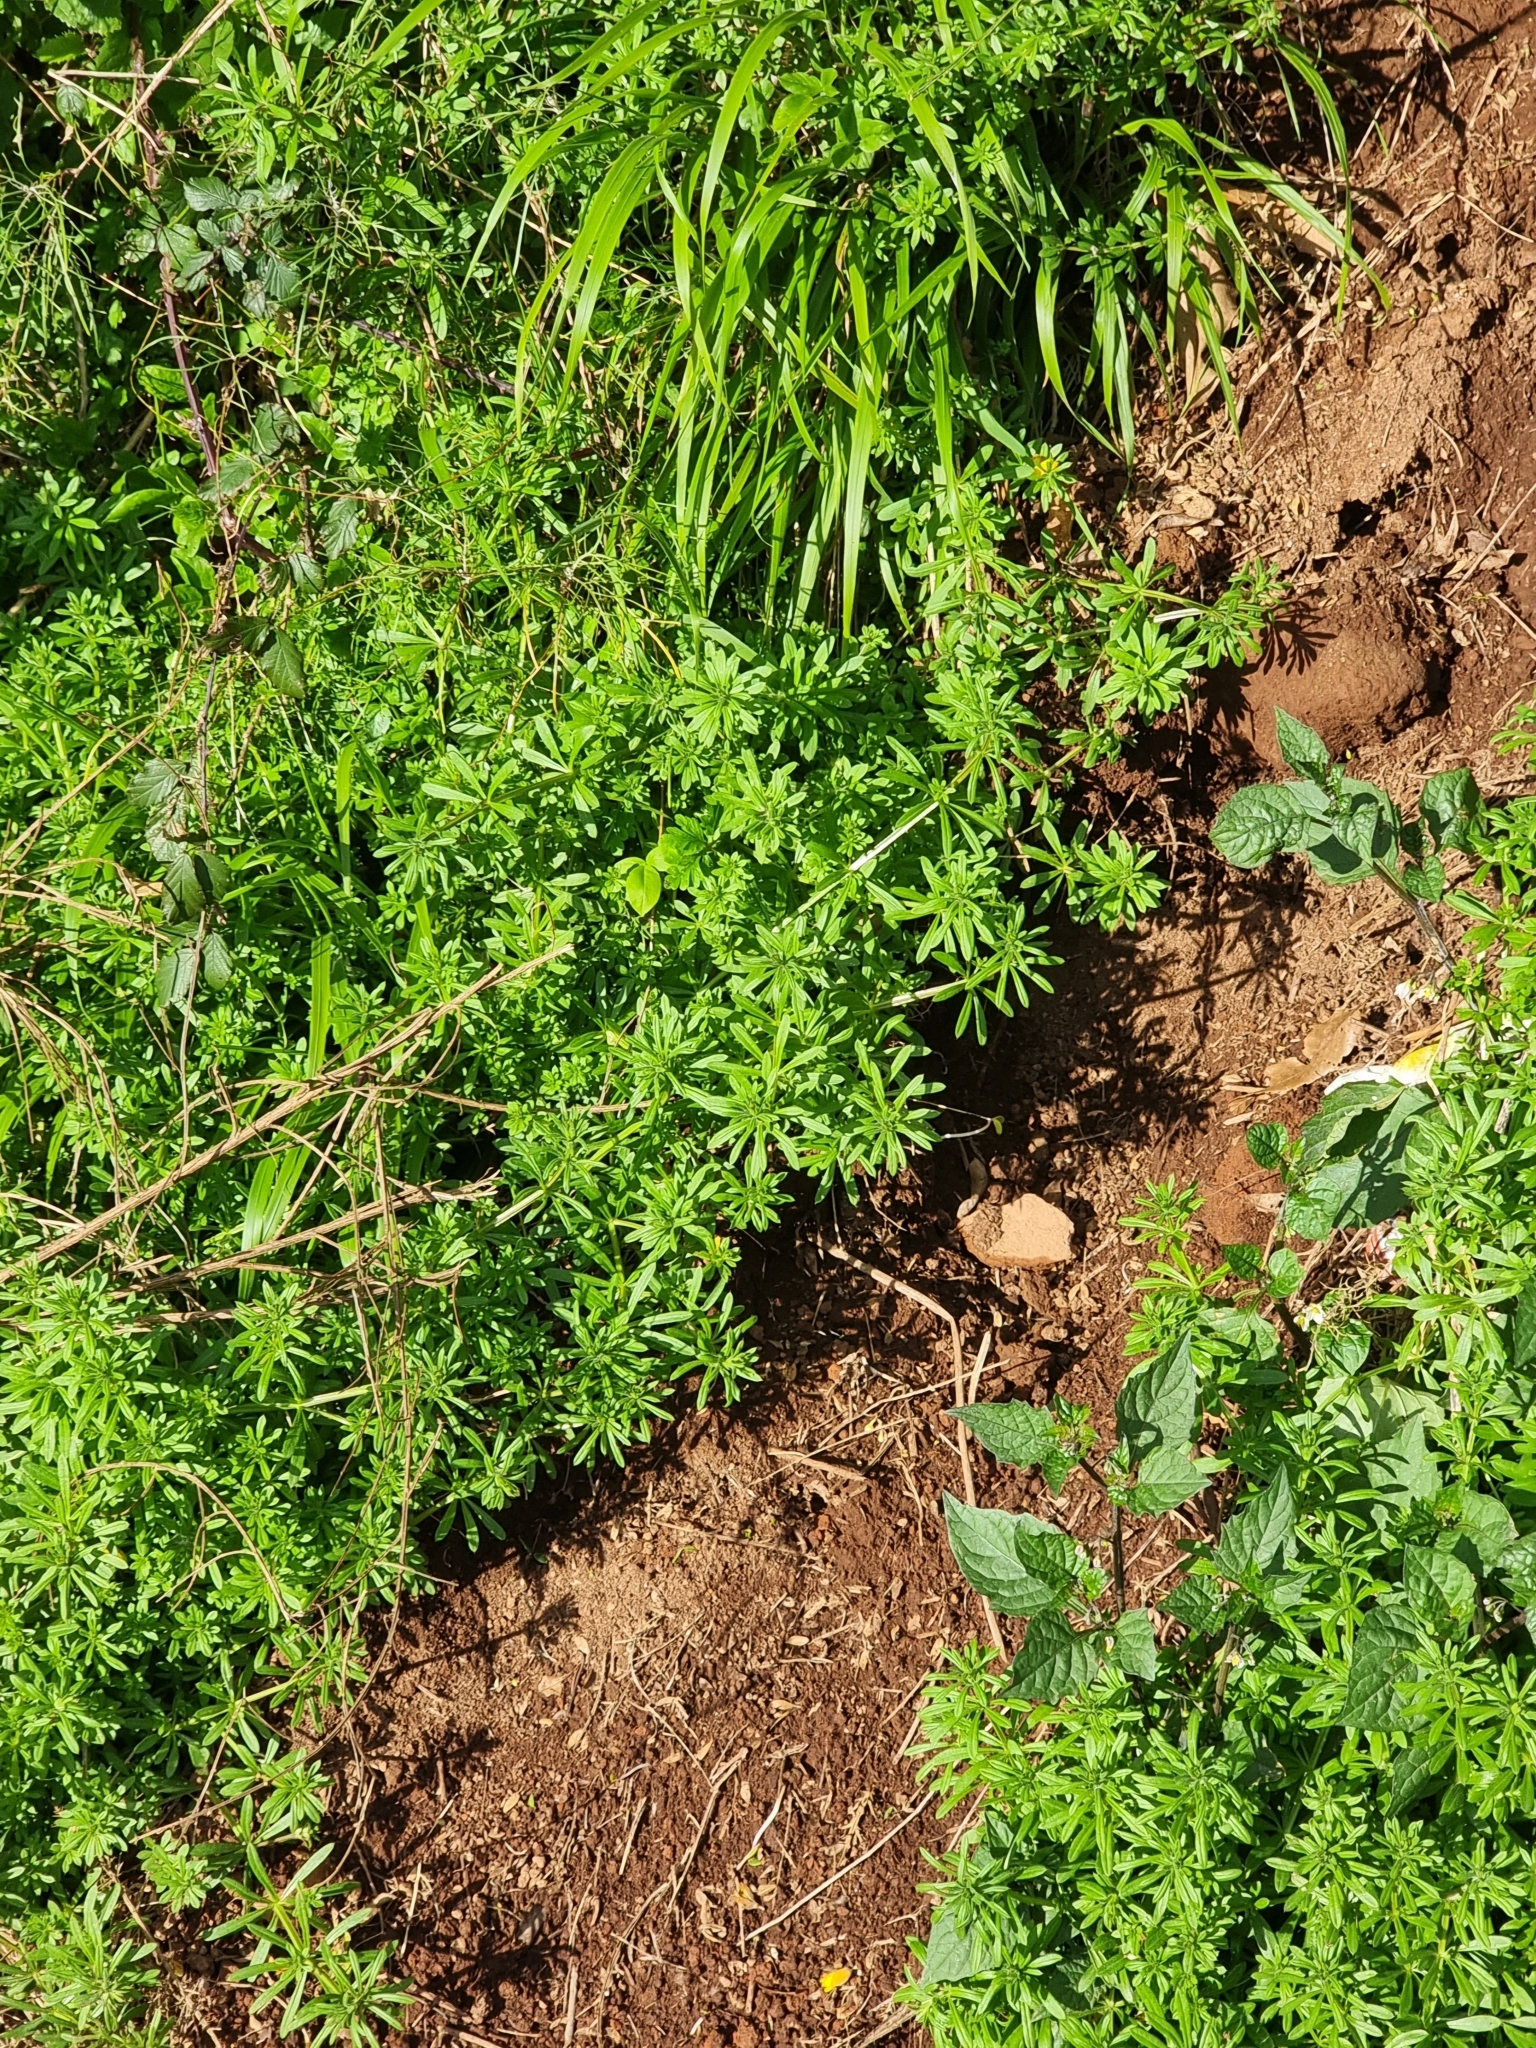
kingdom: Plantae
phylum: Tracheophyta
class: Magnoliopsida
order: Gentianales
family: Rubiaceae
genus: Galium
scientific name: Galium aparine
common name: Cleavers
